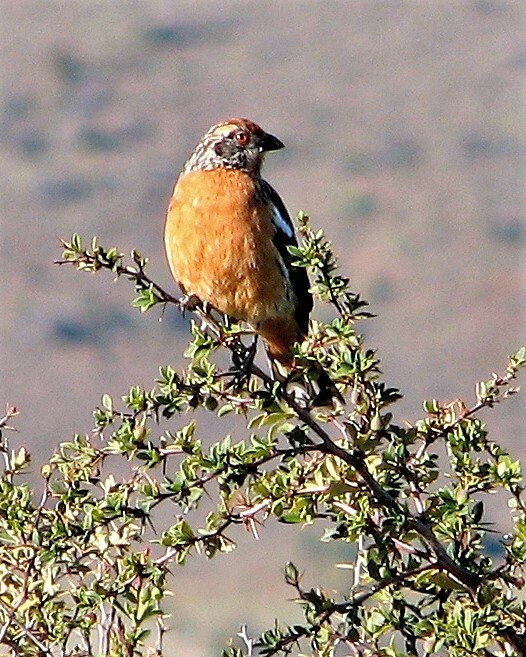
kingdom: Animalia
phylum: Chordata
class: Aves
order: Passeriformes
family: Cotingidae
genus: Phytotoma
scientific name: Phytotoma rara
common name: Rufous-tailed plantcutter
